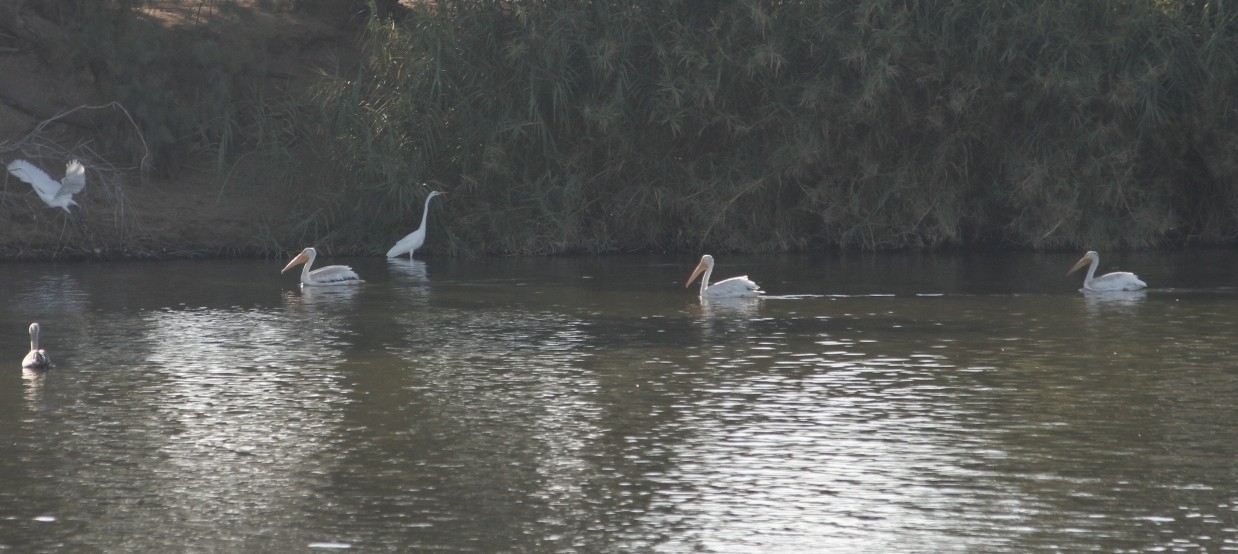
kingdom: Animalia
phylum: Chordata
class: Aves
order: Pelecaniformes
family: Pelecanidae
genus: Pelecanus
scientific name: Pelecanus erythrorhynchos
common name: American white pelican
